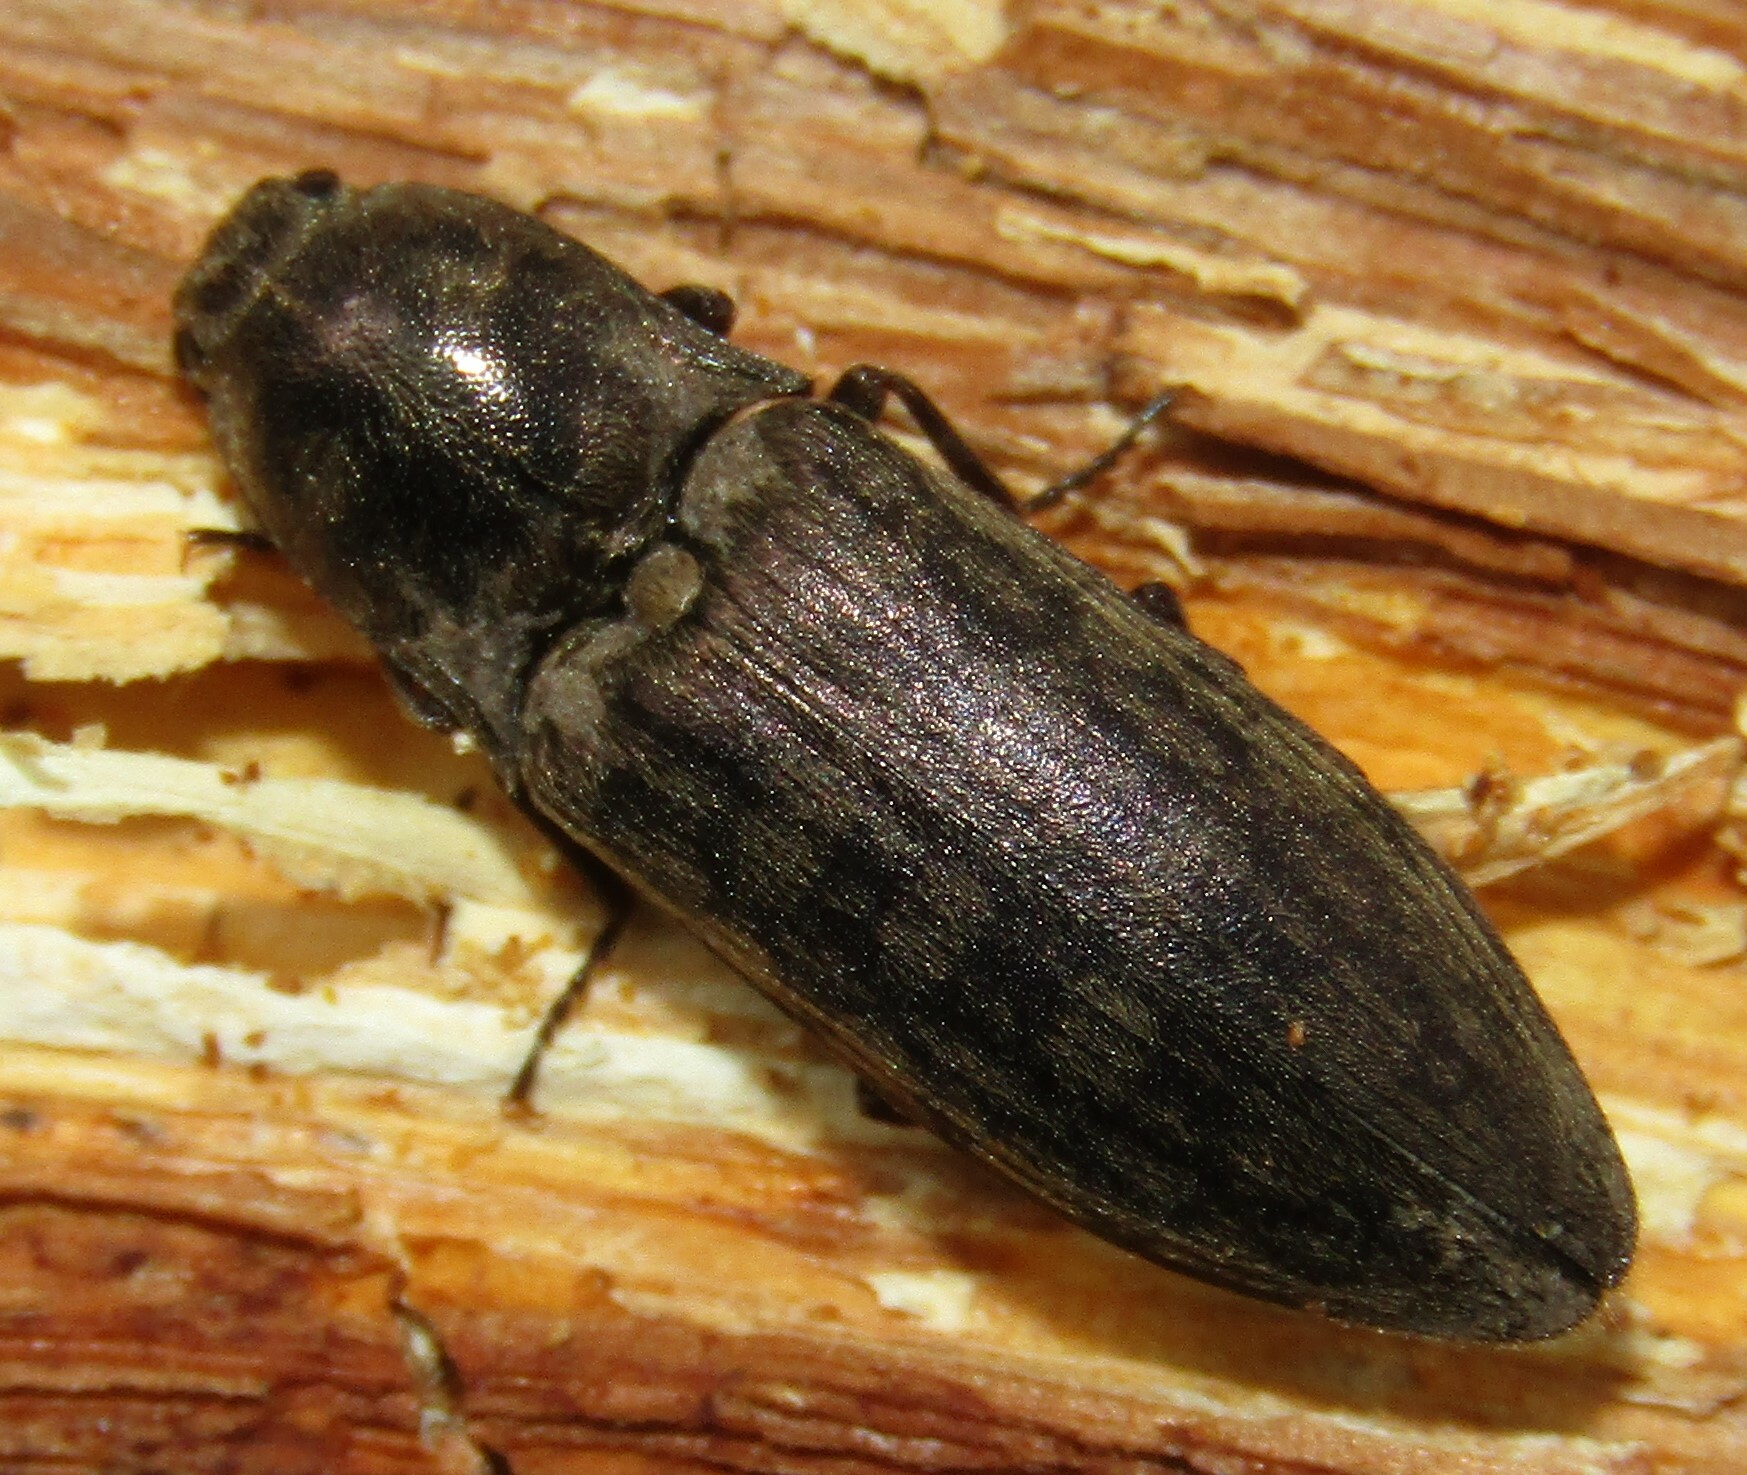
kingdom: Animalia
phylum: Arthropoda
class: Insecta
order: Coleoptera
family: Elateridae
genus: Actenicerus
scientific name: Actenicerus sjaelandicus
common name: Marsh click beetle
